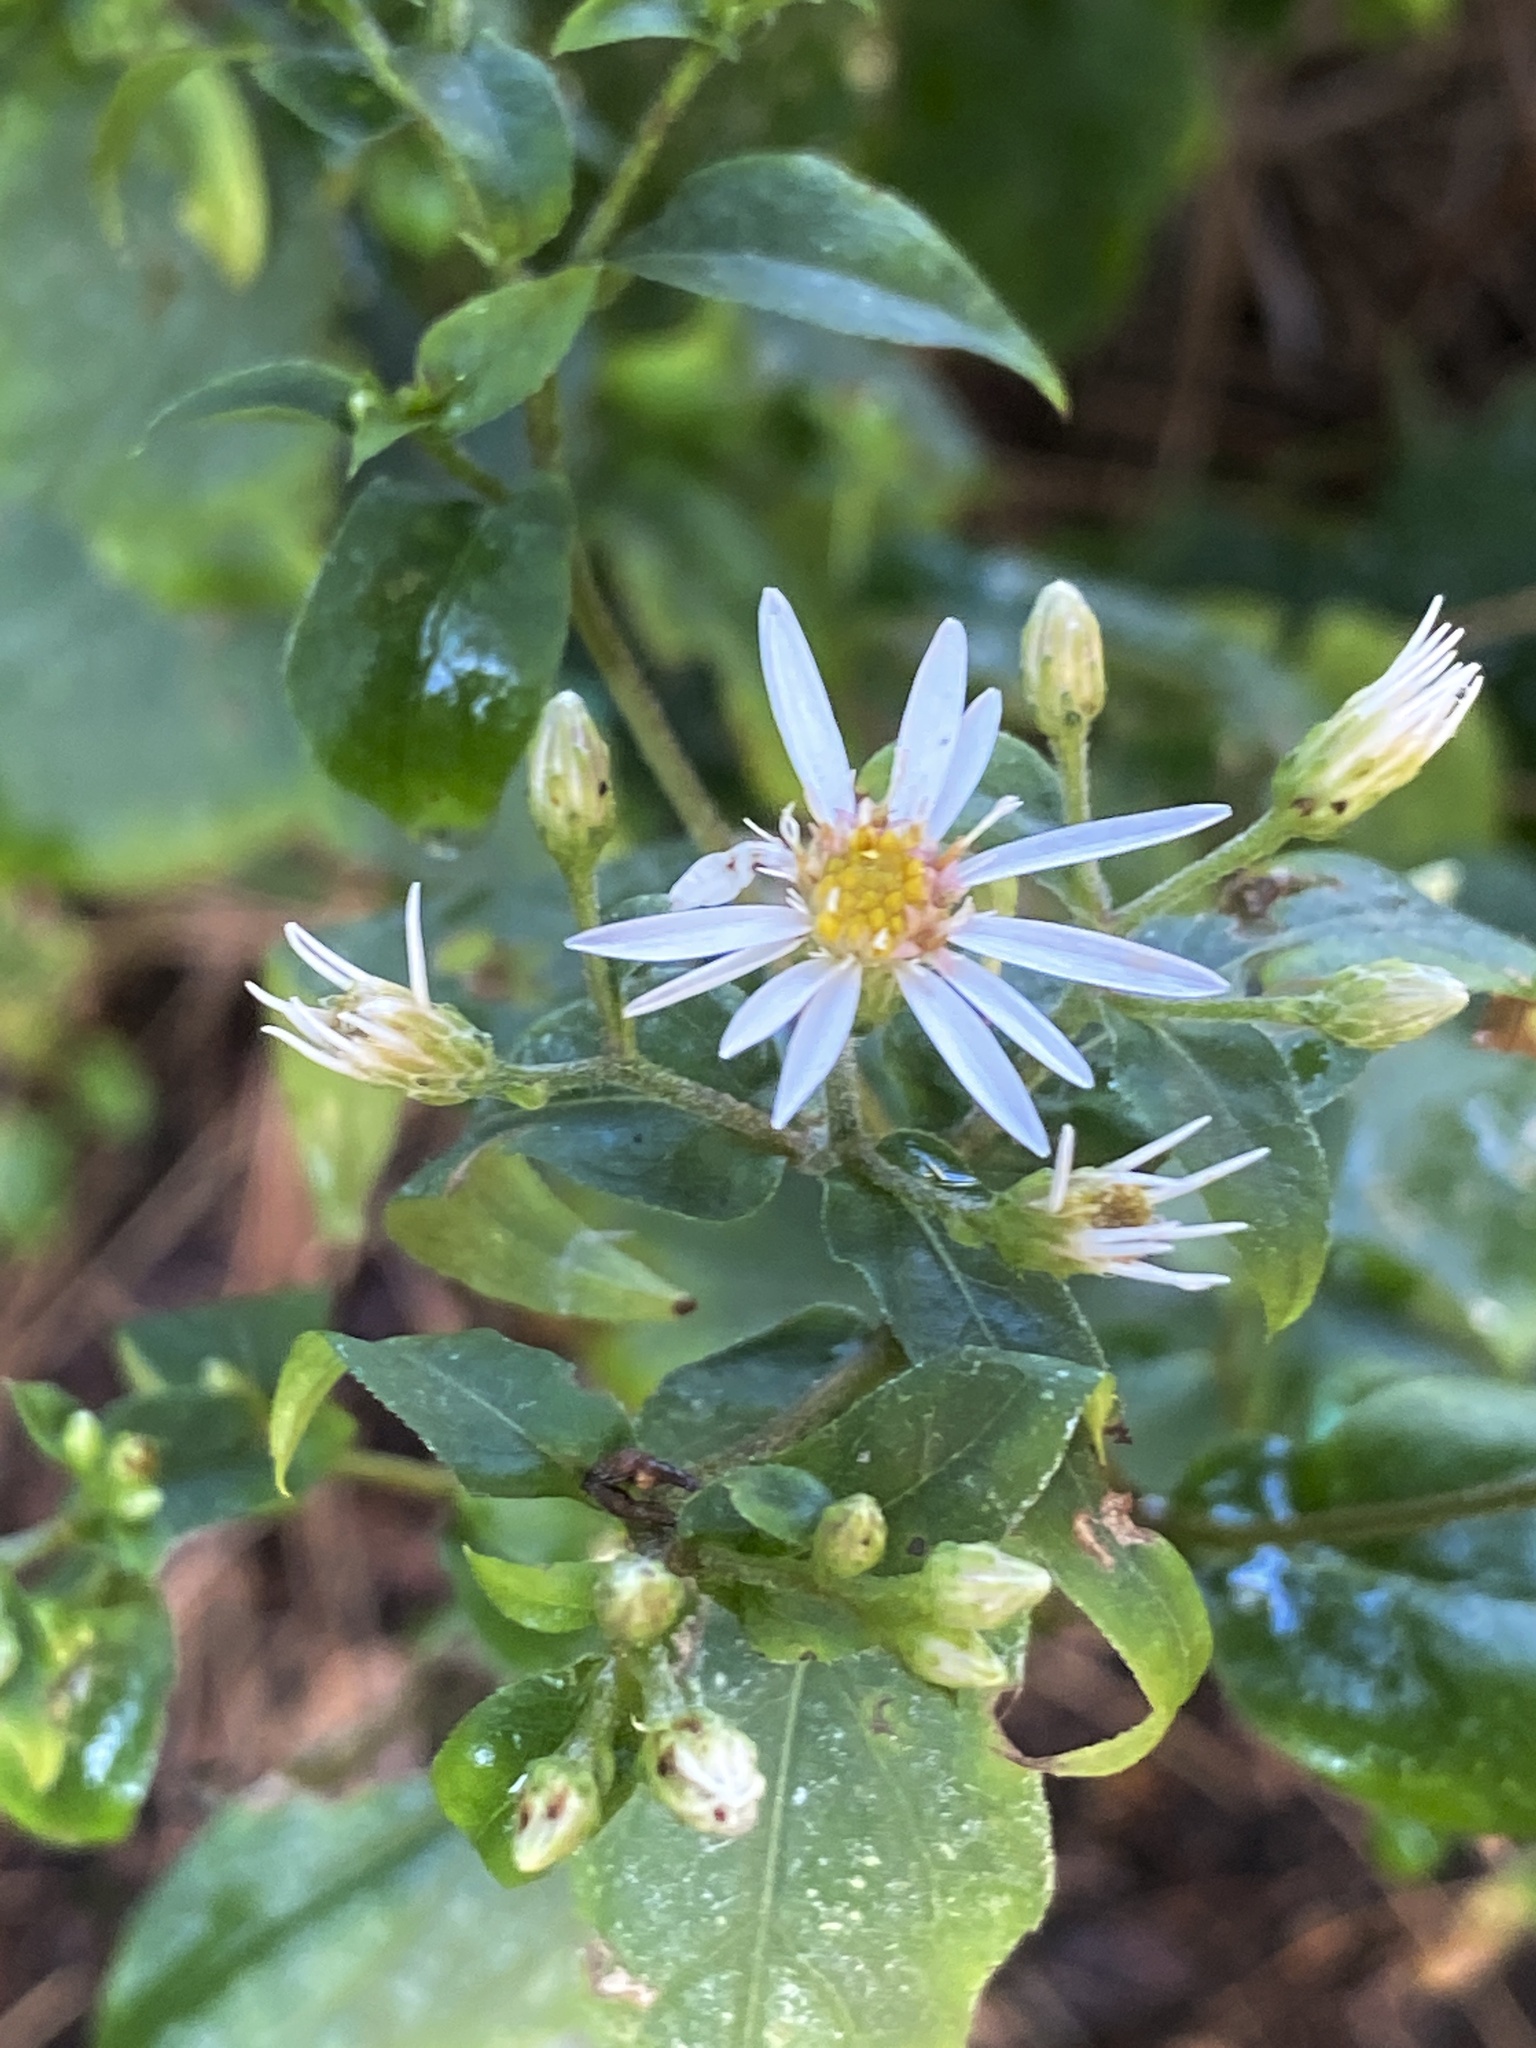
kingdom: Plantae
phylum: Tracheophyta
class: Magnoliopsida
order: Asterales
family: Asteraceae
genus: Eurybia
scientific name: Eurybia divaricata
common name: White wood aster
